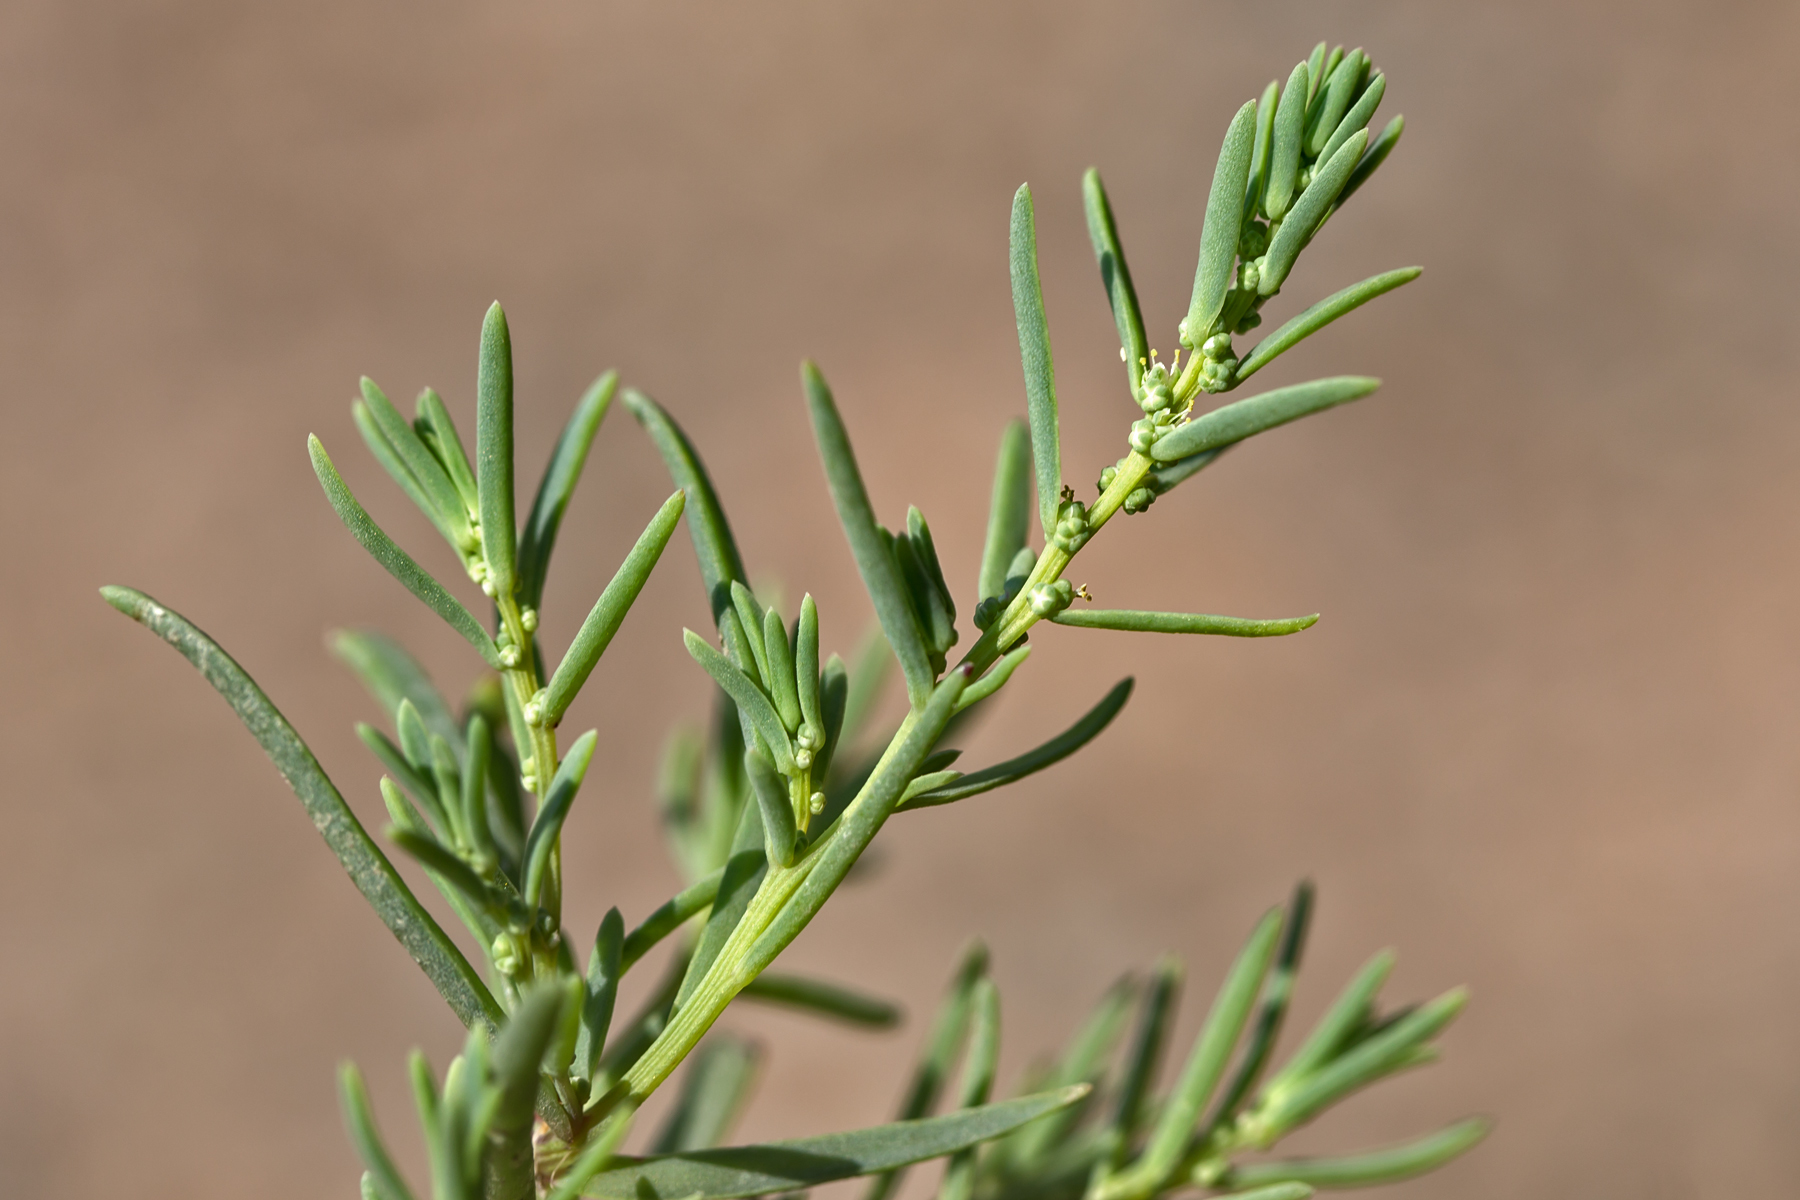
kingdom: Plantae
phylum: Tracheophyta
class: Magnoliopsida
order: Caryophyllales
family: Amaranthaceae
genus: Suaeda
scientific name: Suaeda maritima
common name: Annual sea-blite
